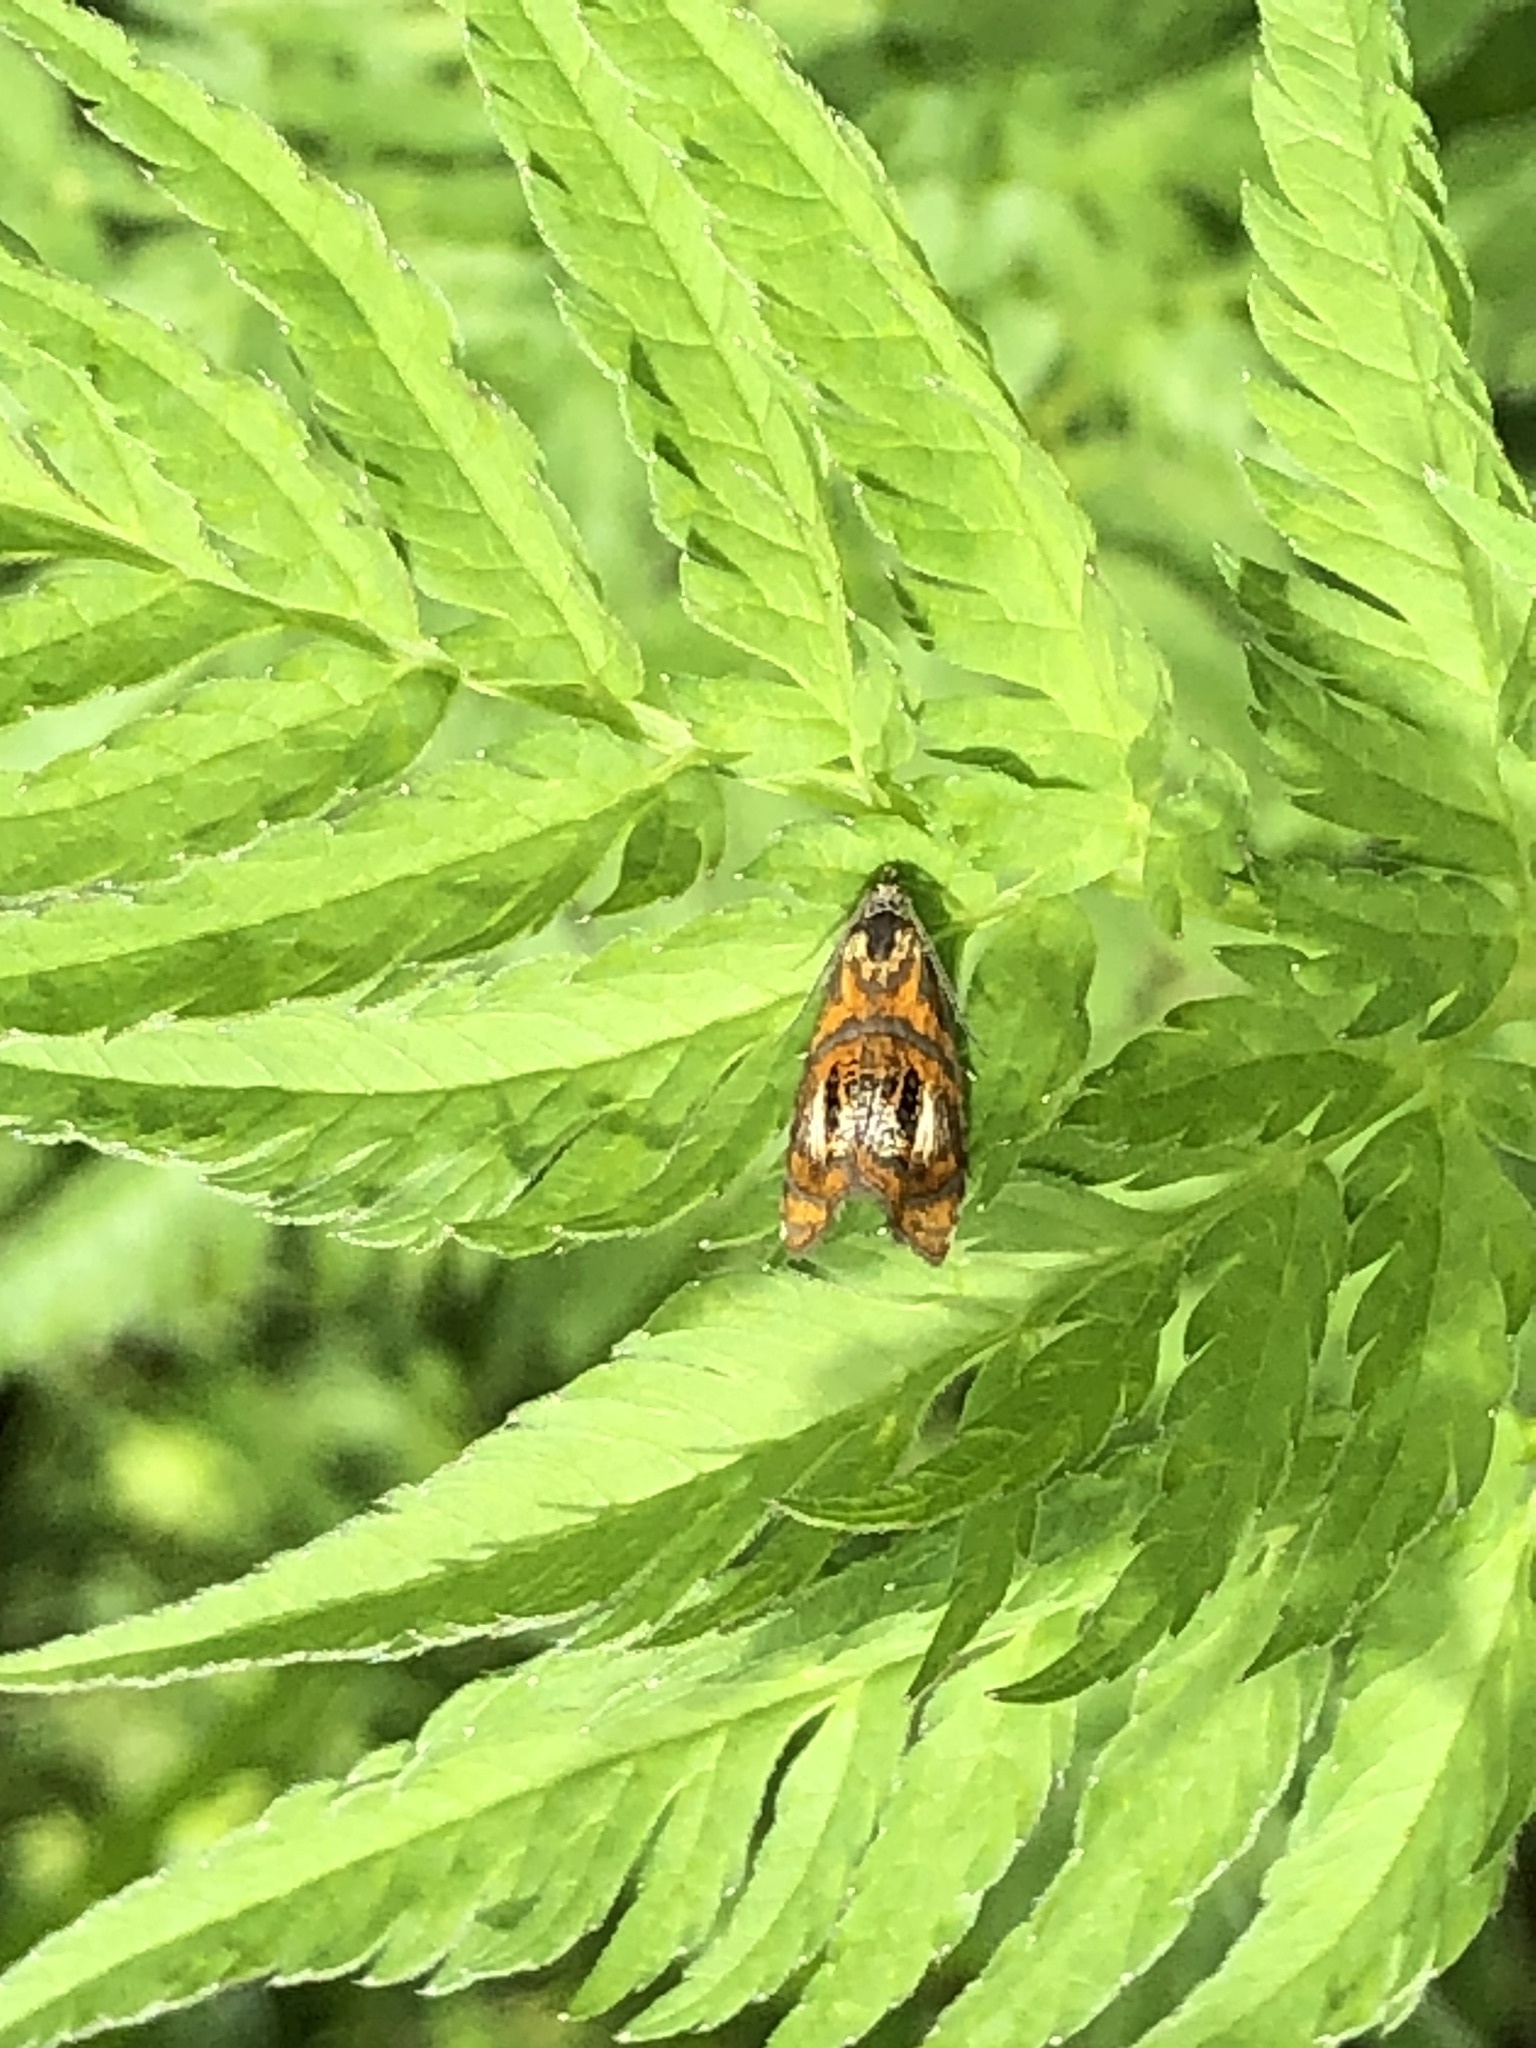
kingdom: Animalia
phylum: Arthropoda
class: Insecta
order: Lepidoptera
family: Tortricidae
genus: Olethreutes
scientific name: Olethreutes arcuella
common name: Arched marble
